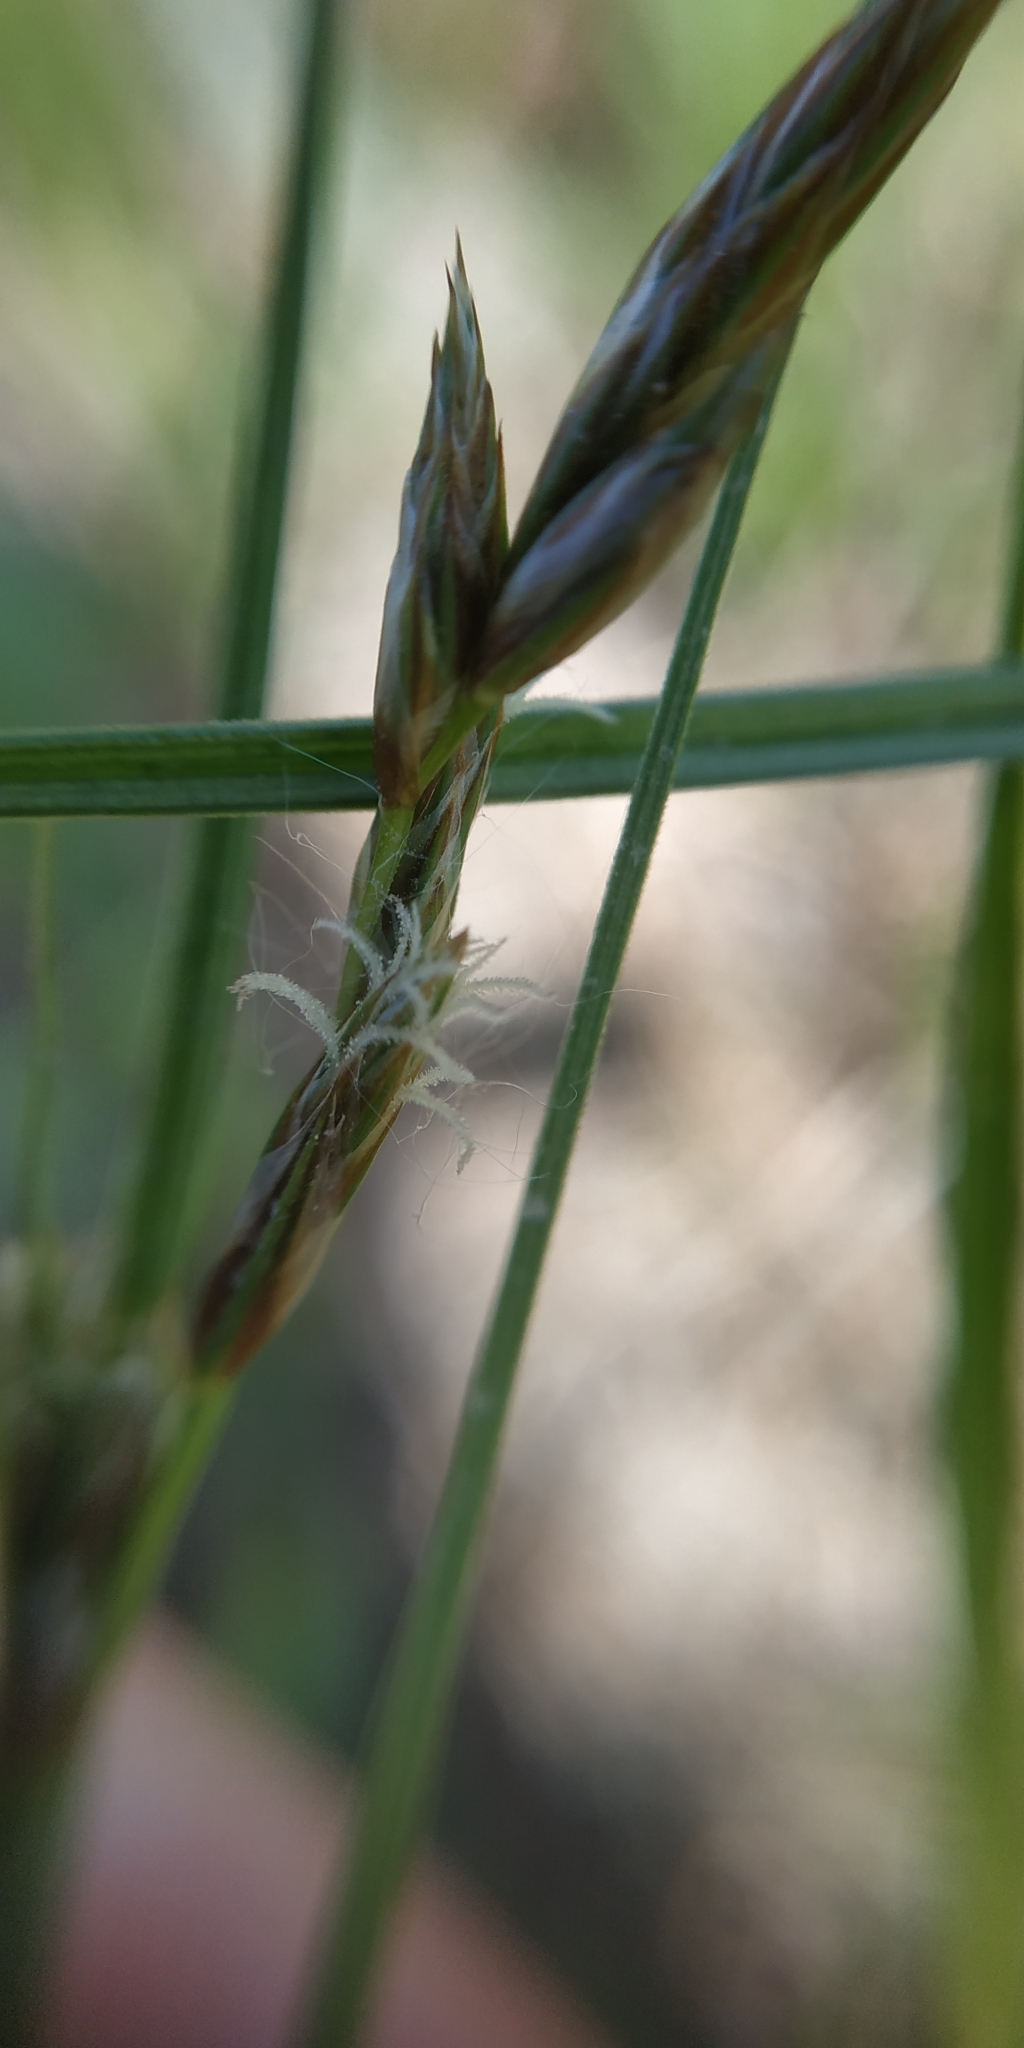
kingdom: Plantae
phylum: Tracheophyta
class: Liliopsida
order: Poales
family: Cyperaceae
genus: Carex
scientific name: Carex praecox
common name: Early sedge
